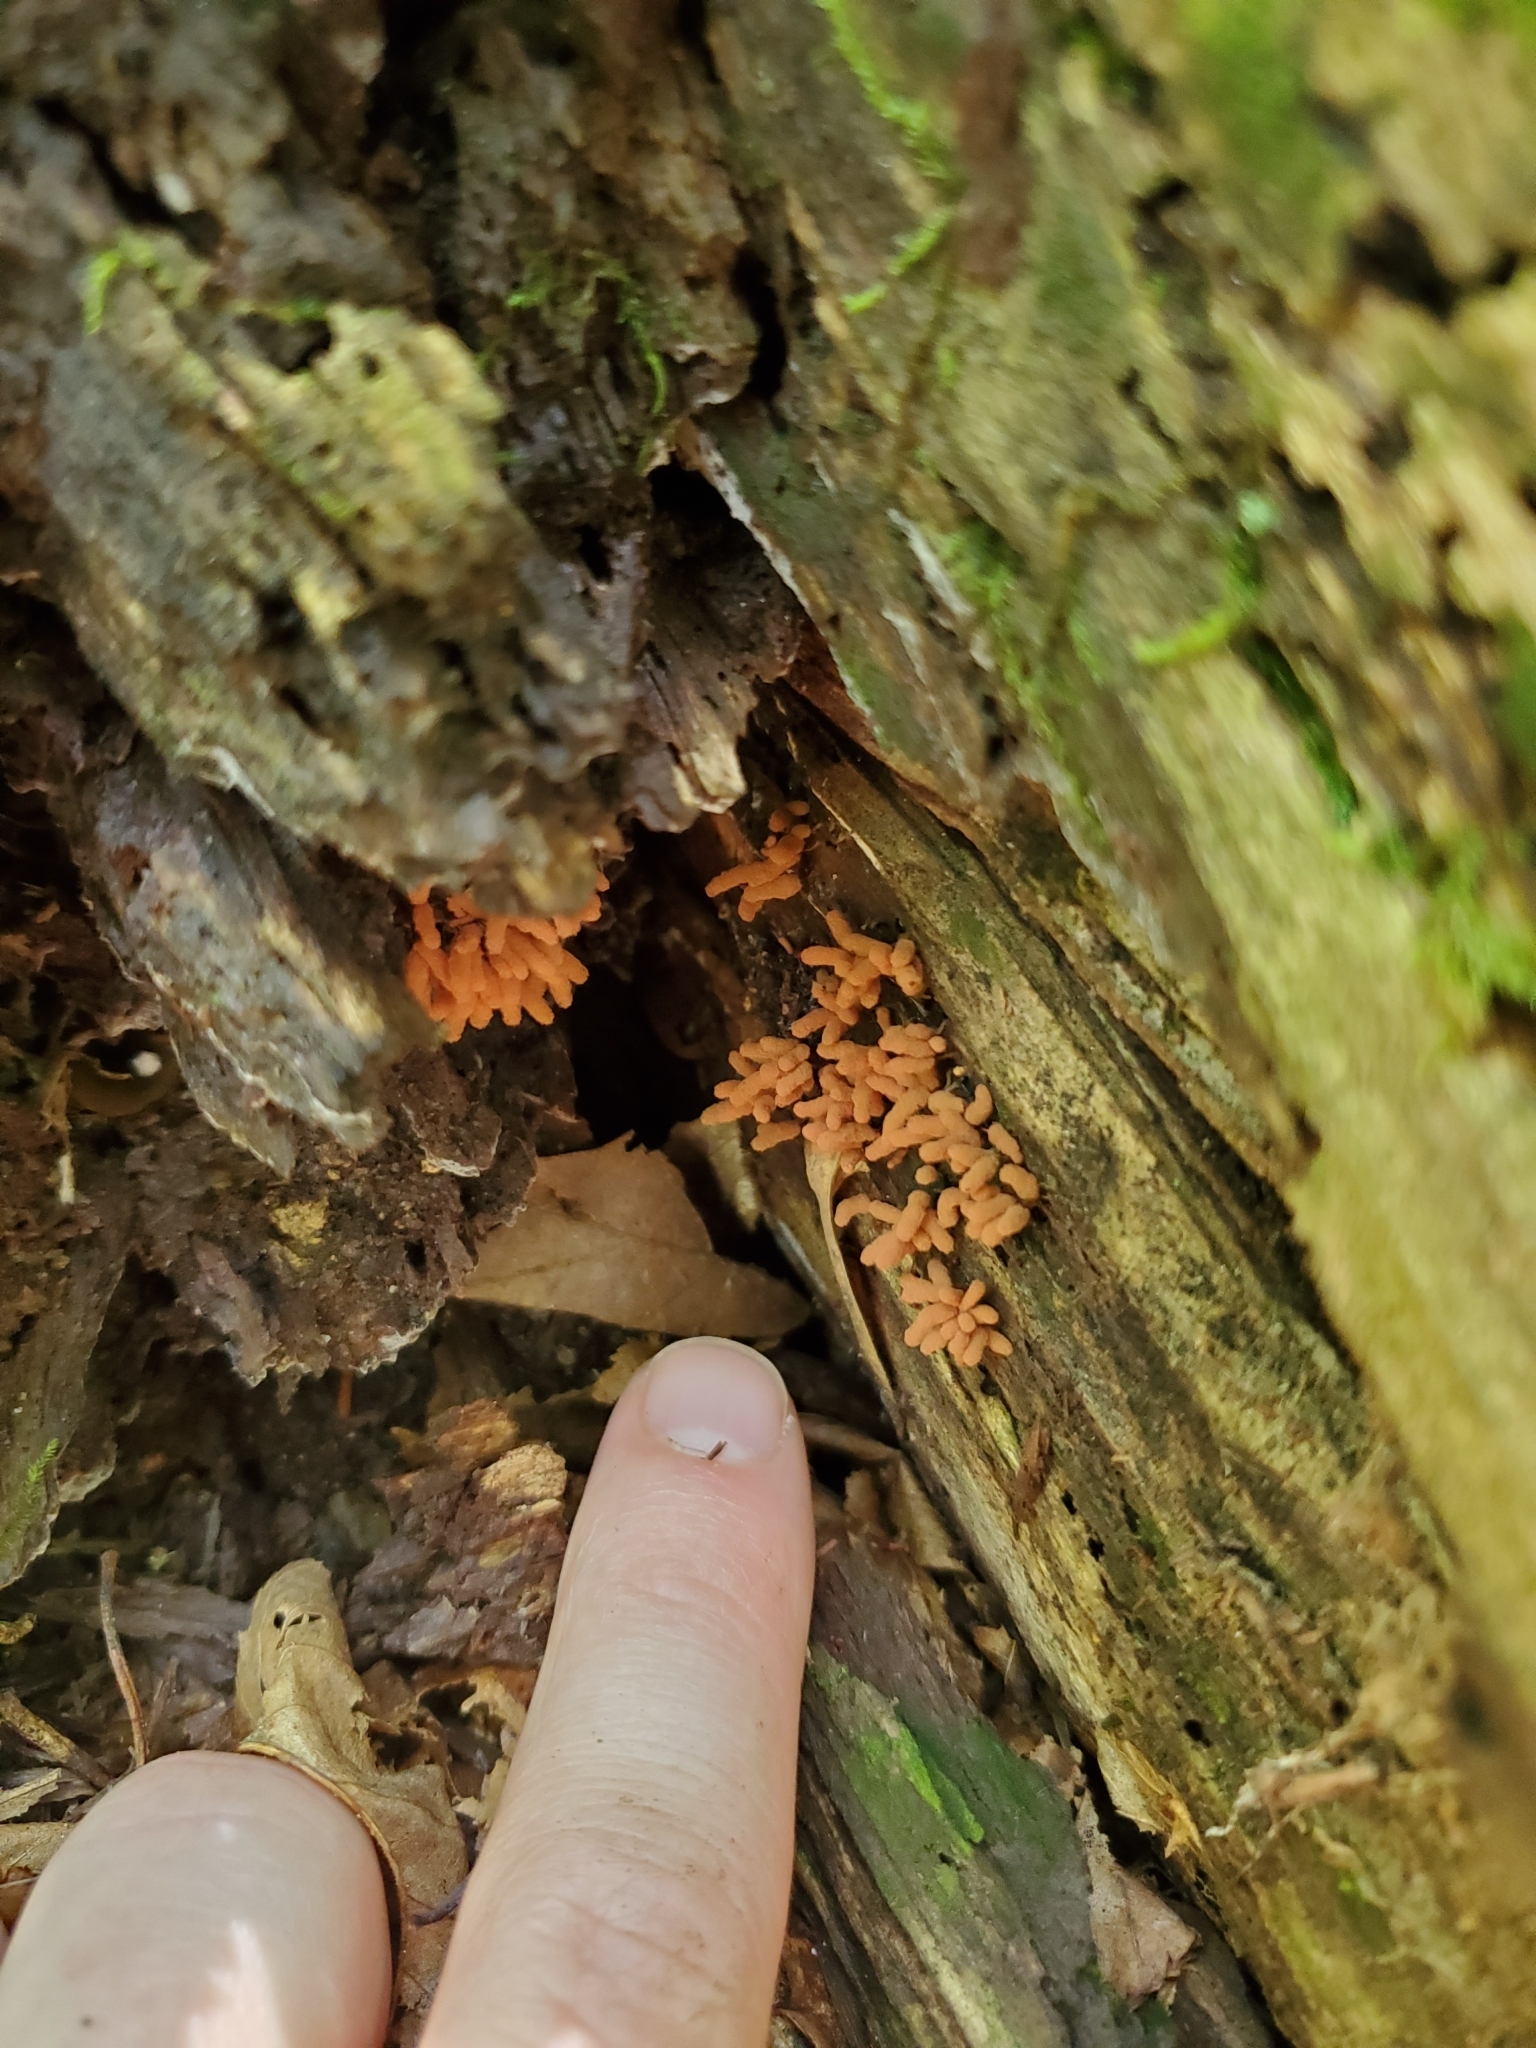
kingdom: Protozoa
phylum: Mycetozoa
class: Myxomycetes
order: Trichiales
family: Arcyriaceae
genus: Arcyria
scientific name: Arcyria denudata
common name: Carnival candy slime mold
